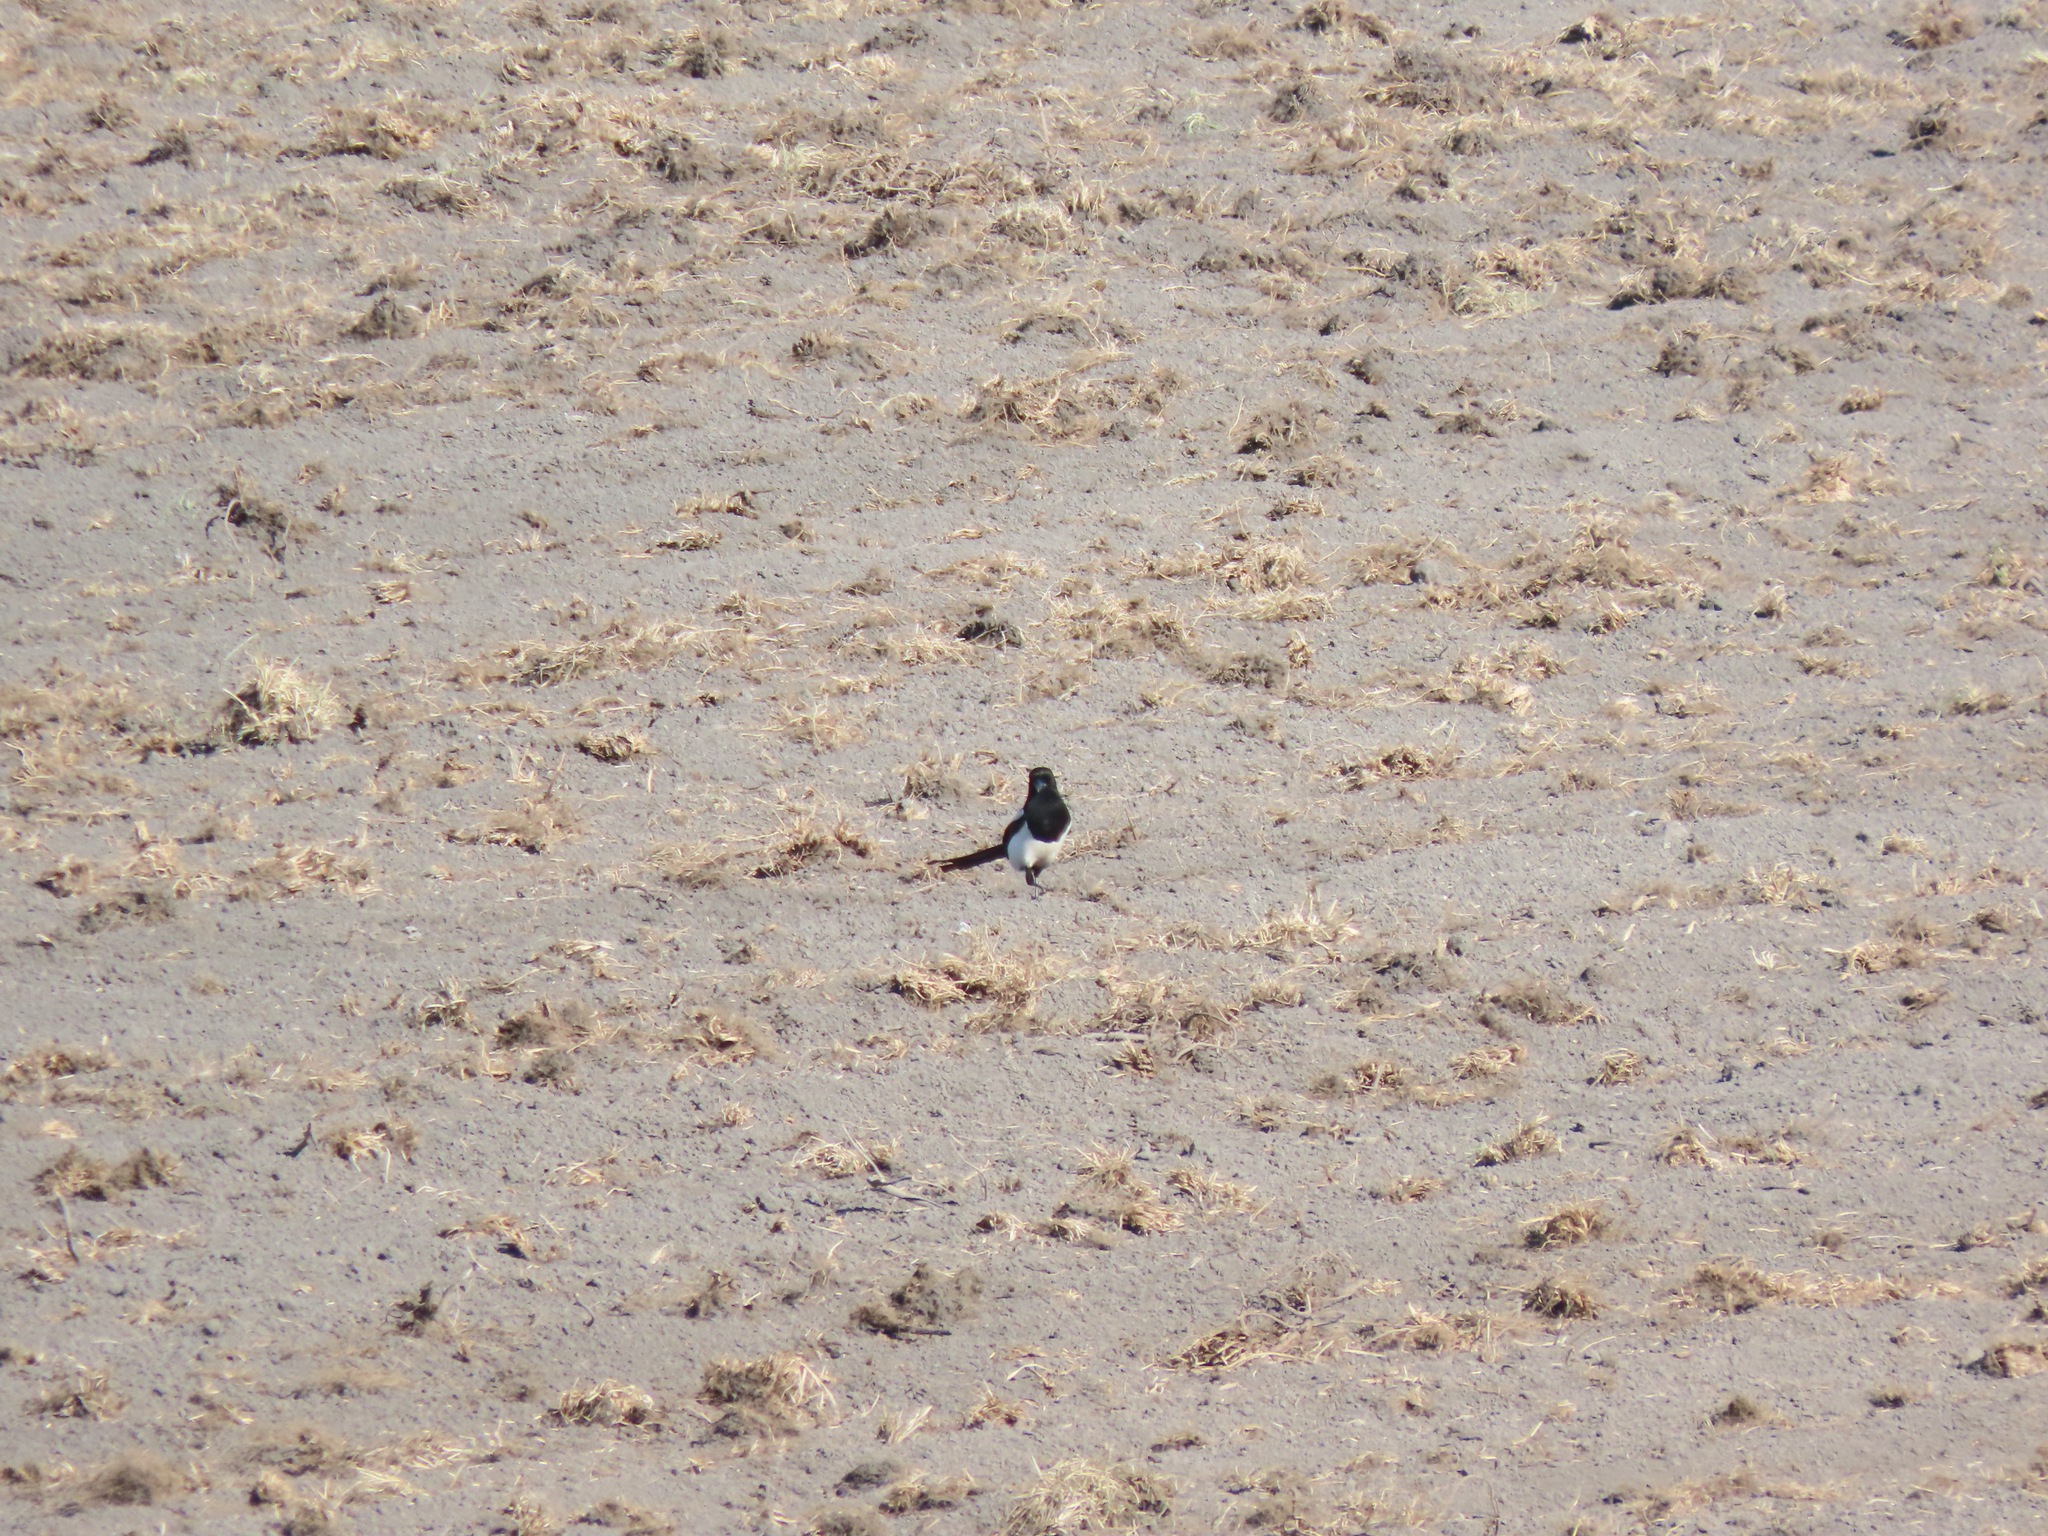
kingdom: Animalia
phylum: Chordata
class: Aves
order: Passeriformes
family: Corvidae
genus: Pica
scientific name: Pica hudsonia
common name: Black-billed magpie
